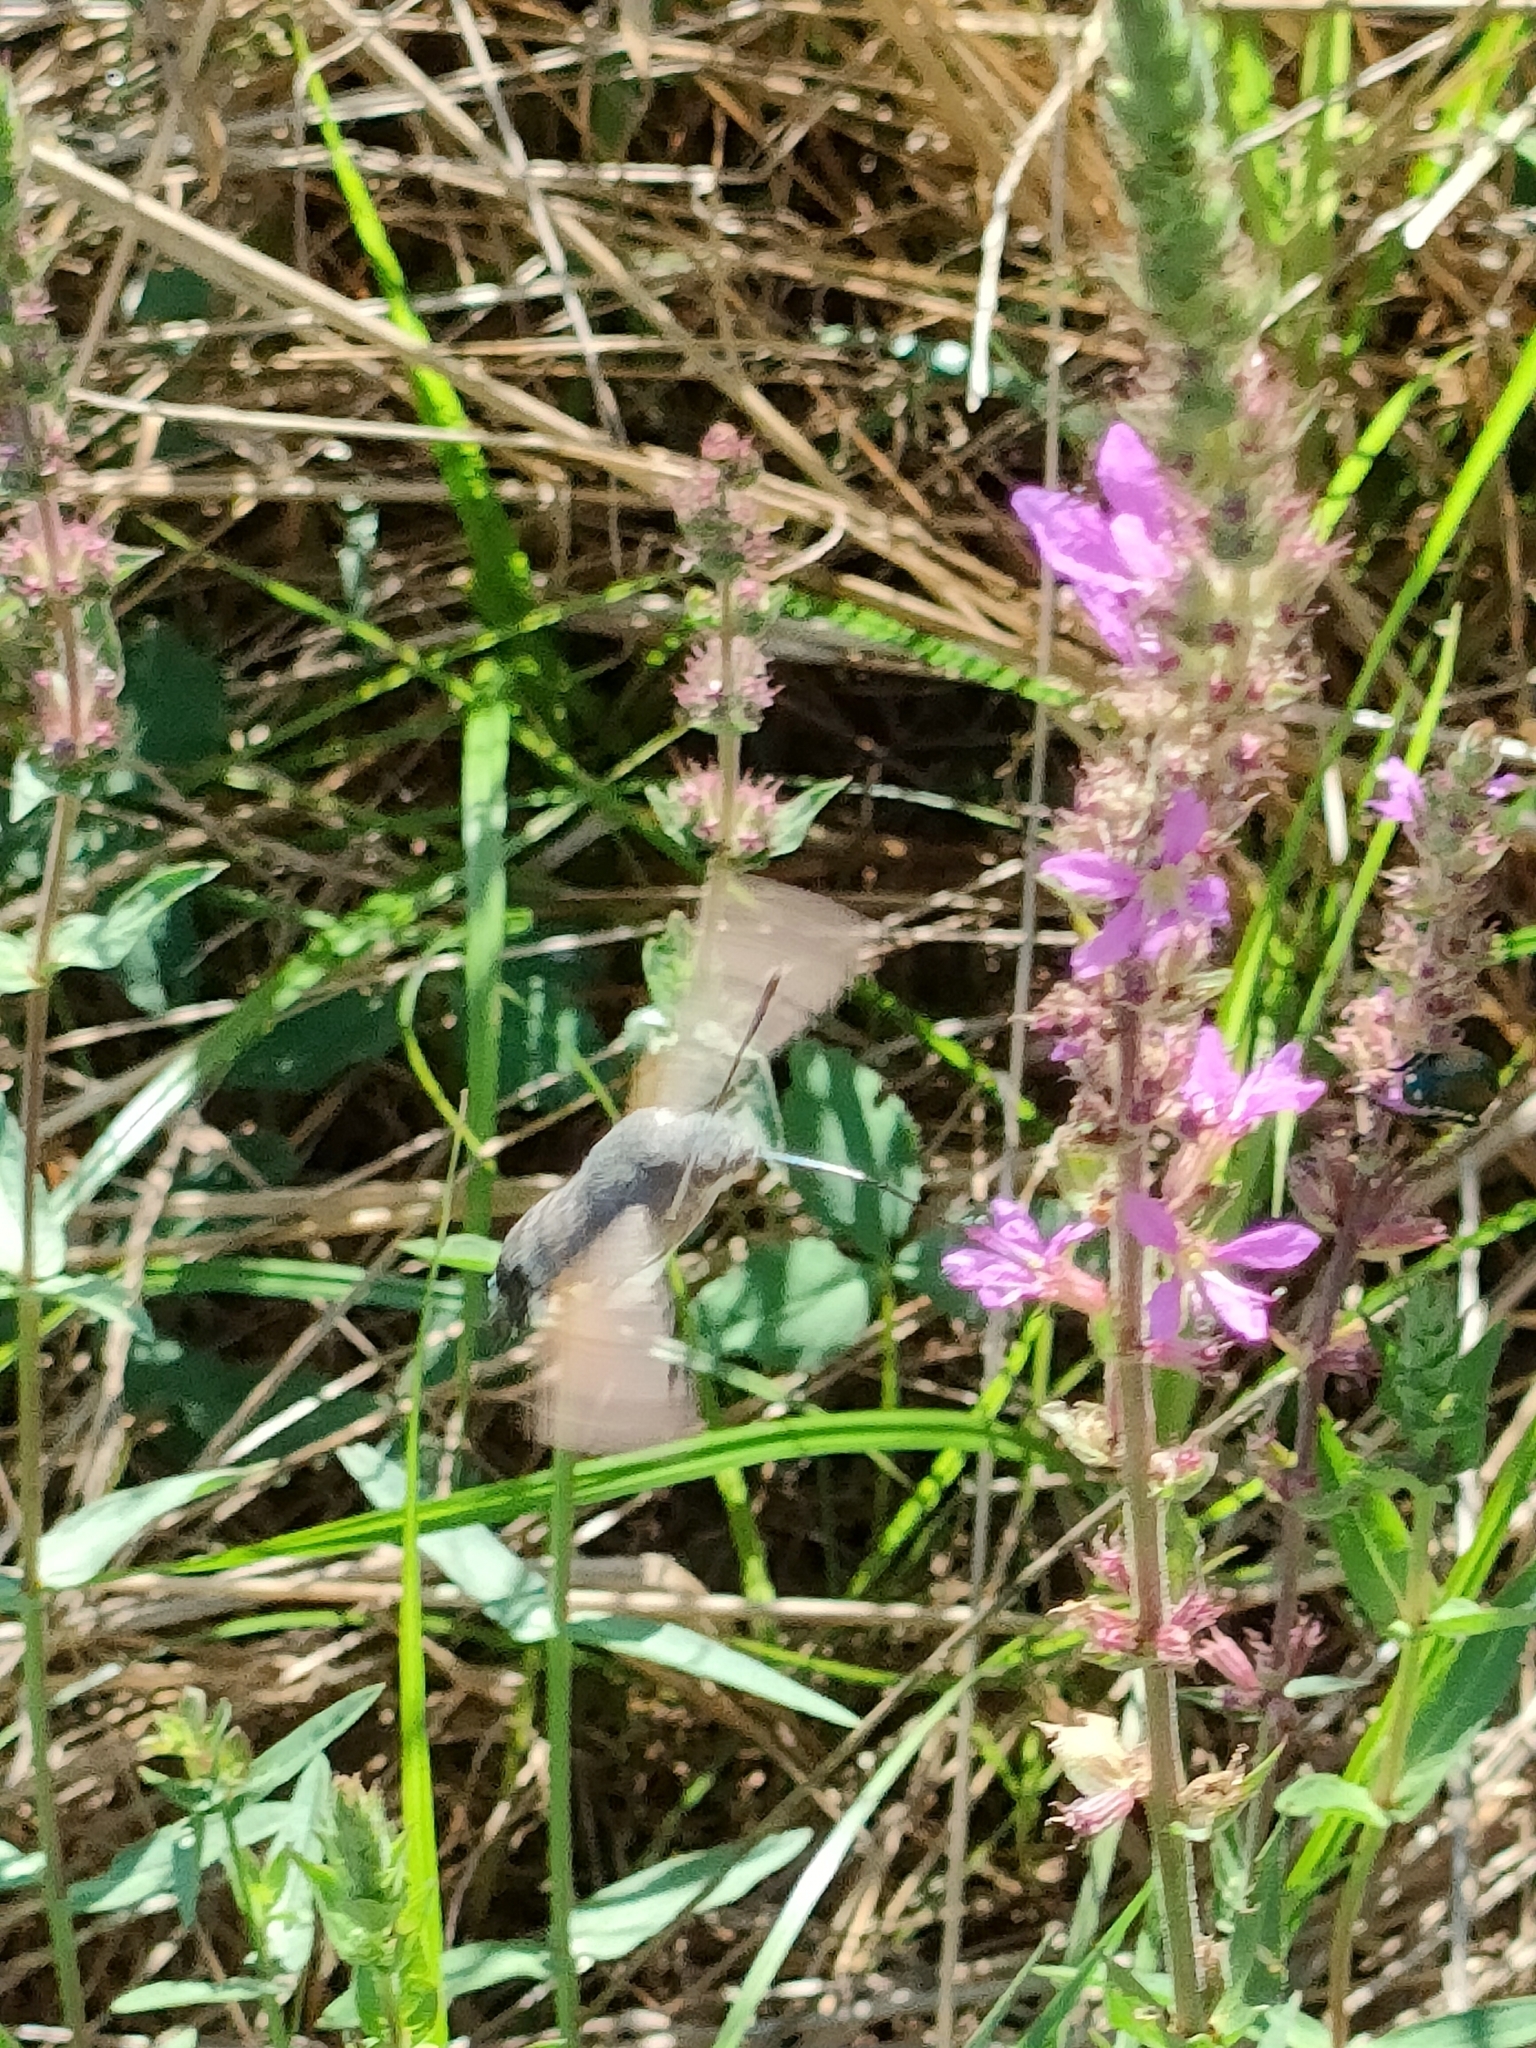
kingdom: Animalia
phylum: Arthropoda
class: Insecta
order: Lepidoptera
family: Sphingidae
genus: Macroglossum
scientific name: Macroglossum stellatarum
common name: Humming-bird hawk-moth
